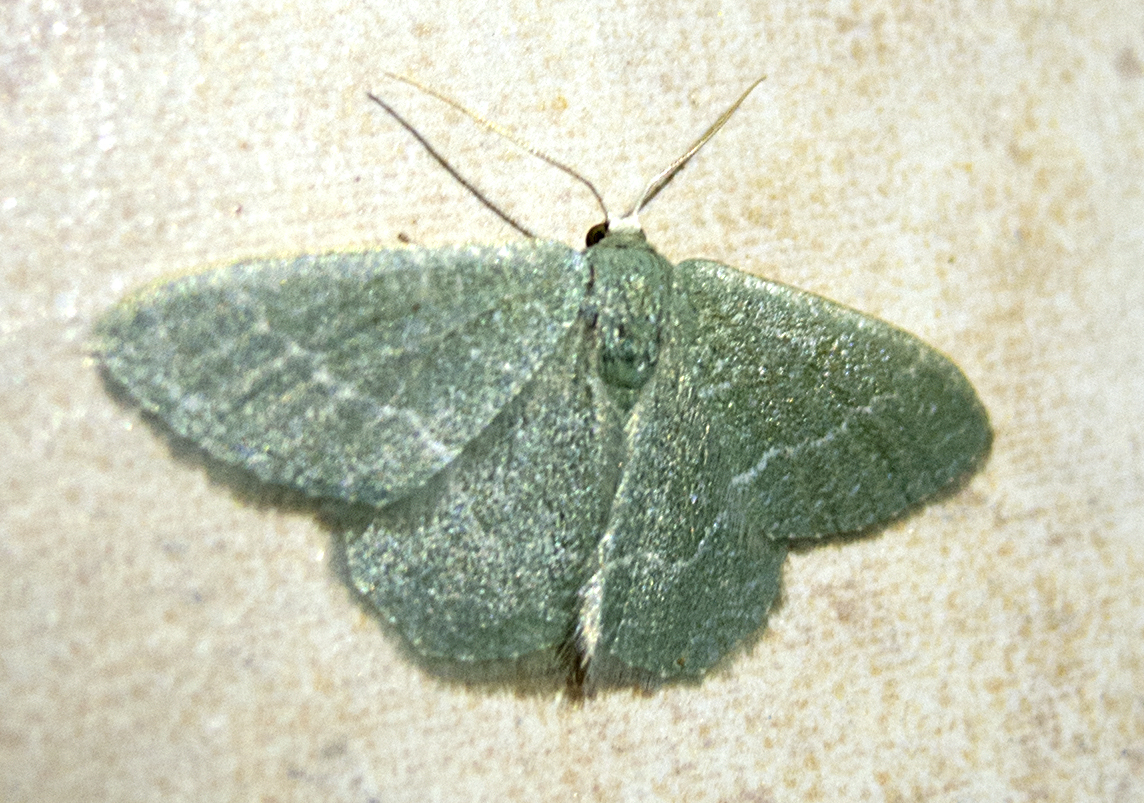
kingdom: Animalia
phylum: Arthropoda
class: Insecta
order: Lepidoptera
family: Geometridae
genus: Chlorissa
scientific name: Chlorissa etruscaria
